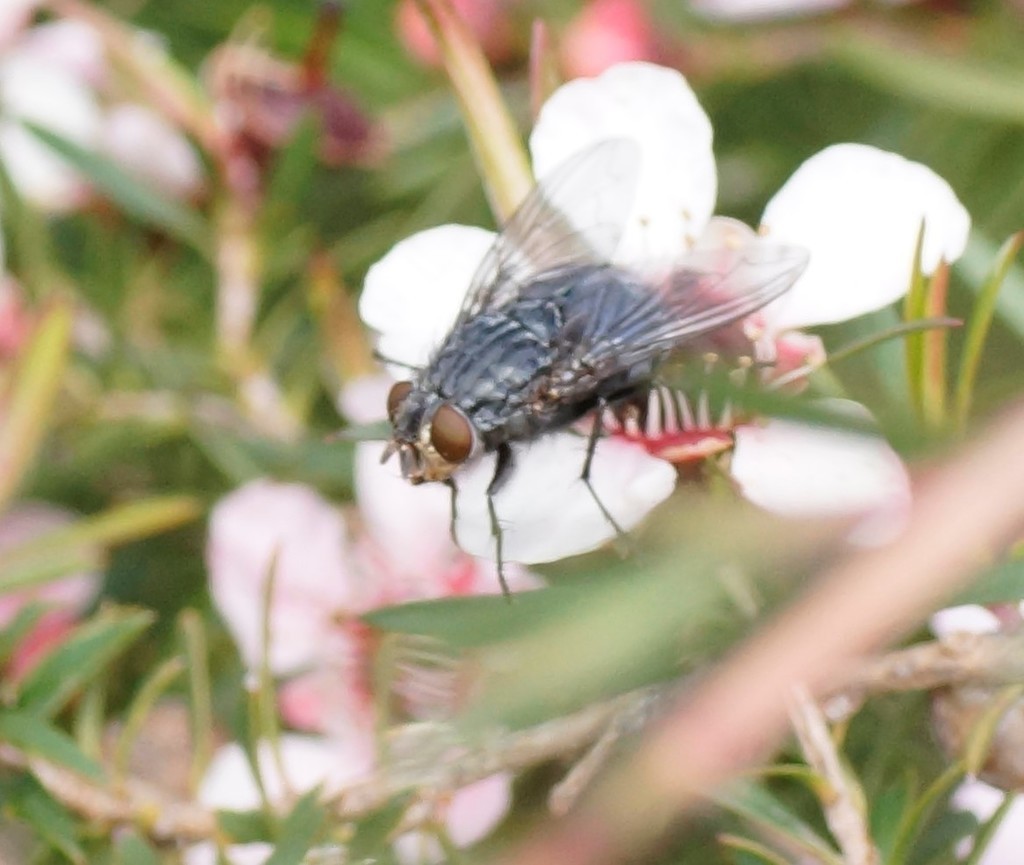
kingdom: Animalia
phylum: Arthropoda
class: Insecta
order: Diptera
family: Calliphoridae
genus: Calliphora
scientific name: Calliphora vicina
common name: Common blow flie
